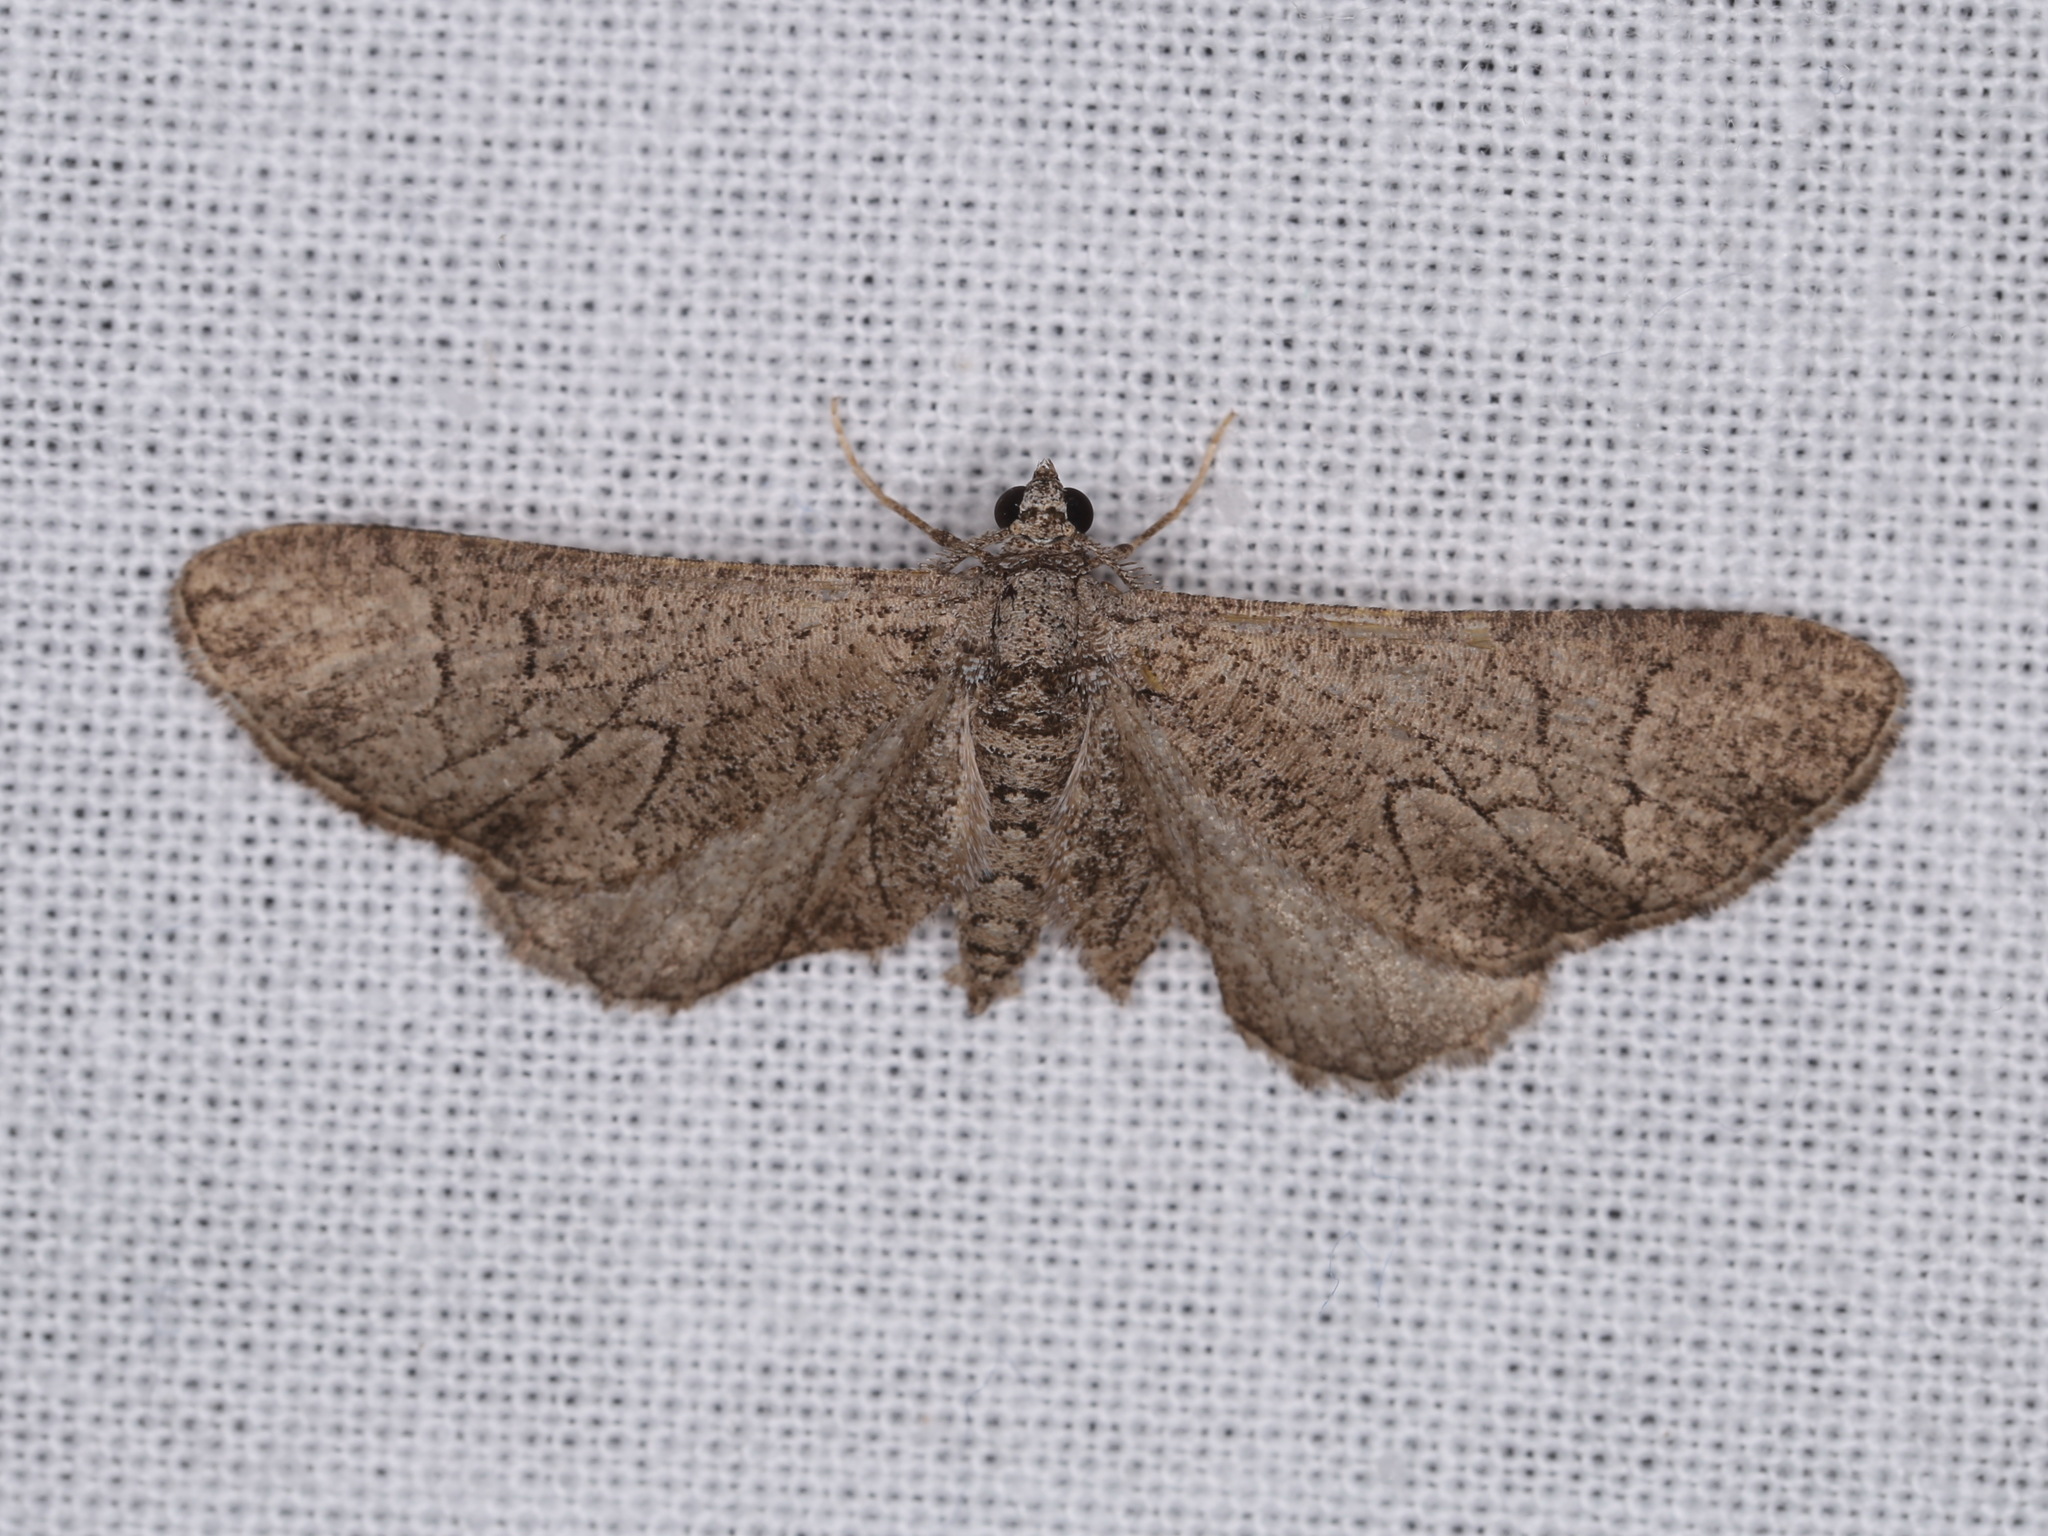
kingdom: Animalia
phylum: Arthropoda
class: Insecta
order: Lepidoptera
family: Geometridae
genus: Ectropis
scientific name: Ectropis hieroglyphica
